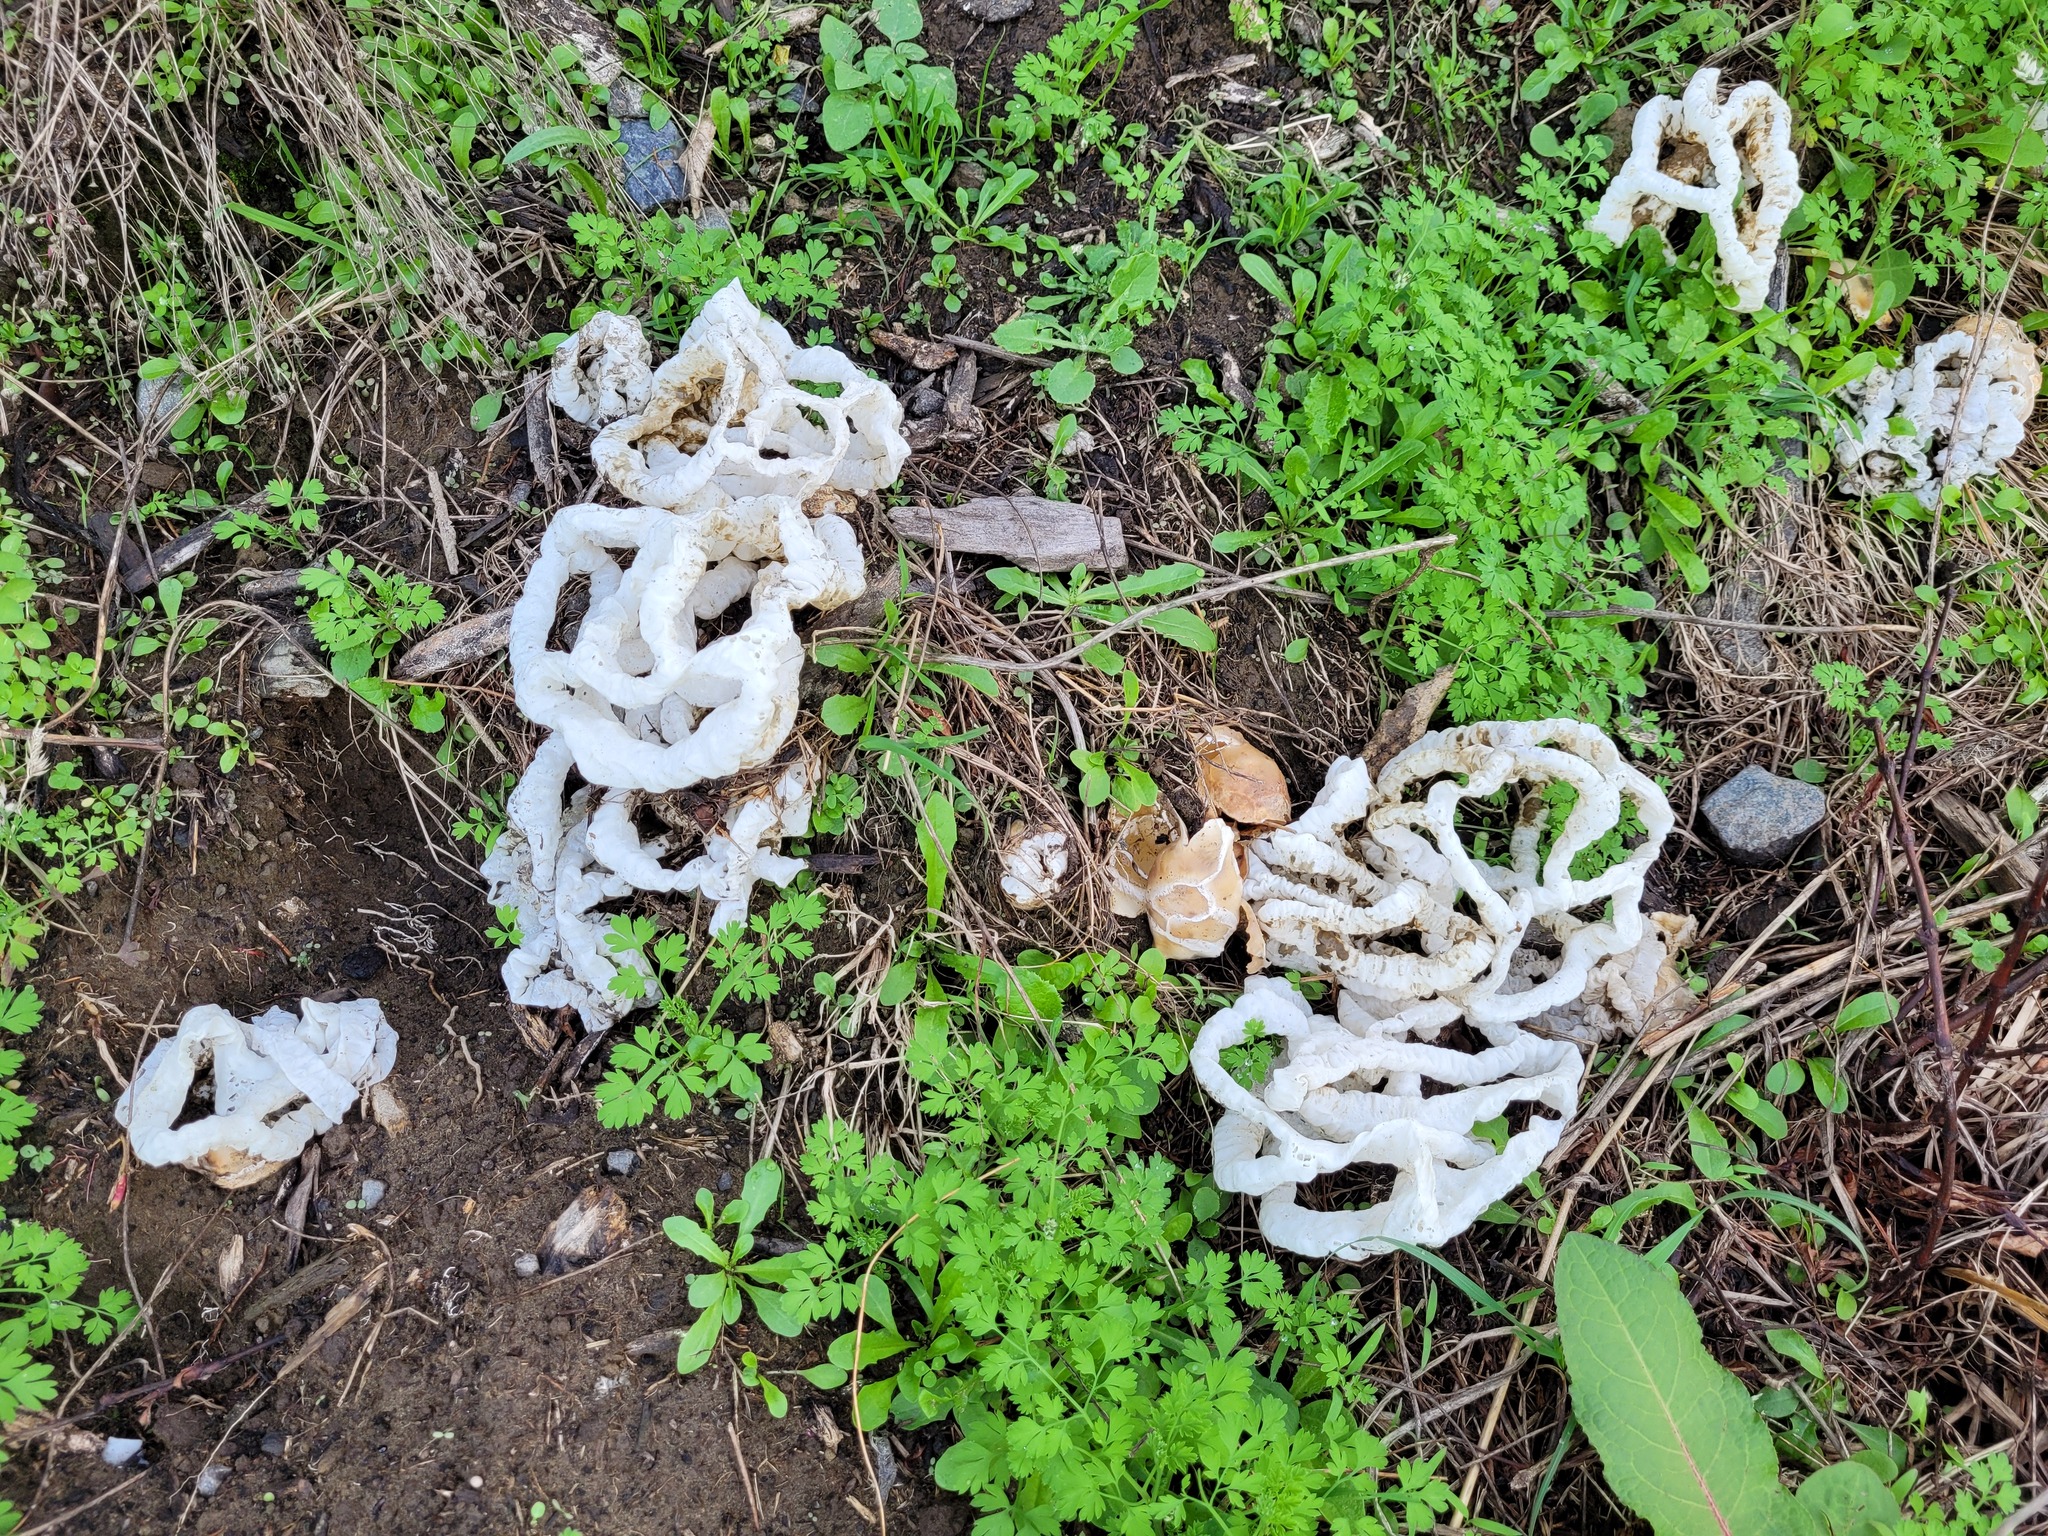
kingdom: Fungi
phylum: Basidiomycota
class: Agaricomycetes
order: Phallales
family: Phallaceae
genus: Ileodictyon
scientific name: Ileodictyon cibarium
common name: Basket fungus
